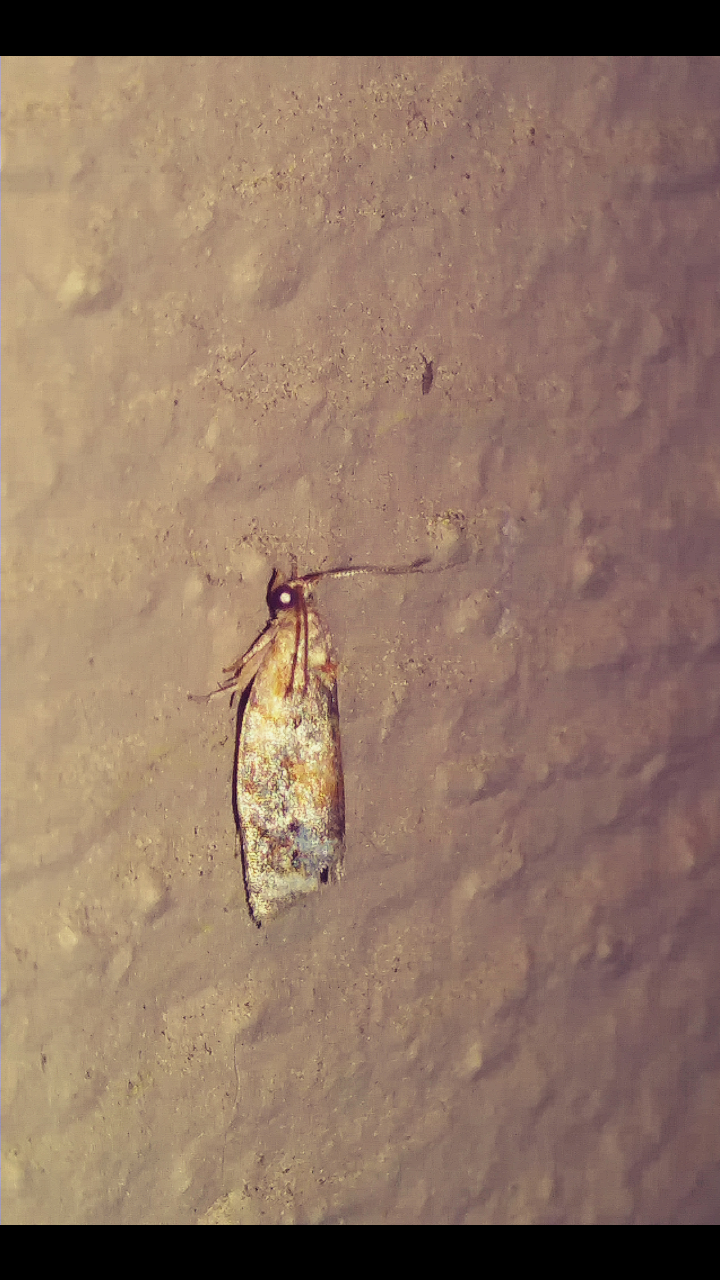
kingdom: Animalia
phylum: Arthropoda
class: Insecta
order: Lepidoptera
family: Tortricidae
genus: Argyrotaenia
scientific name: Argyrotaenia velutinana
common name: Red-banded leafroller moth
